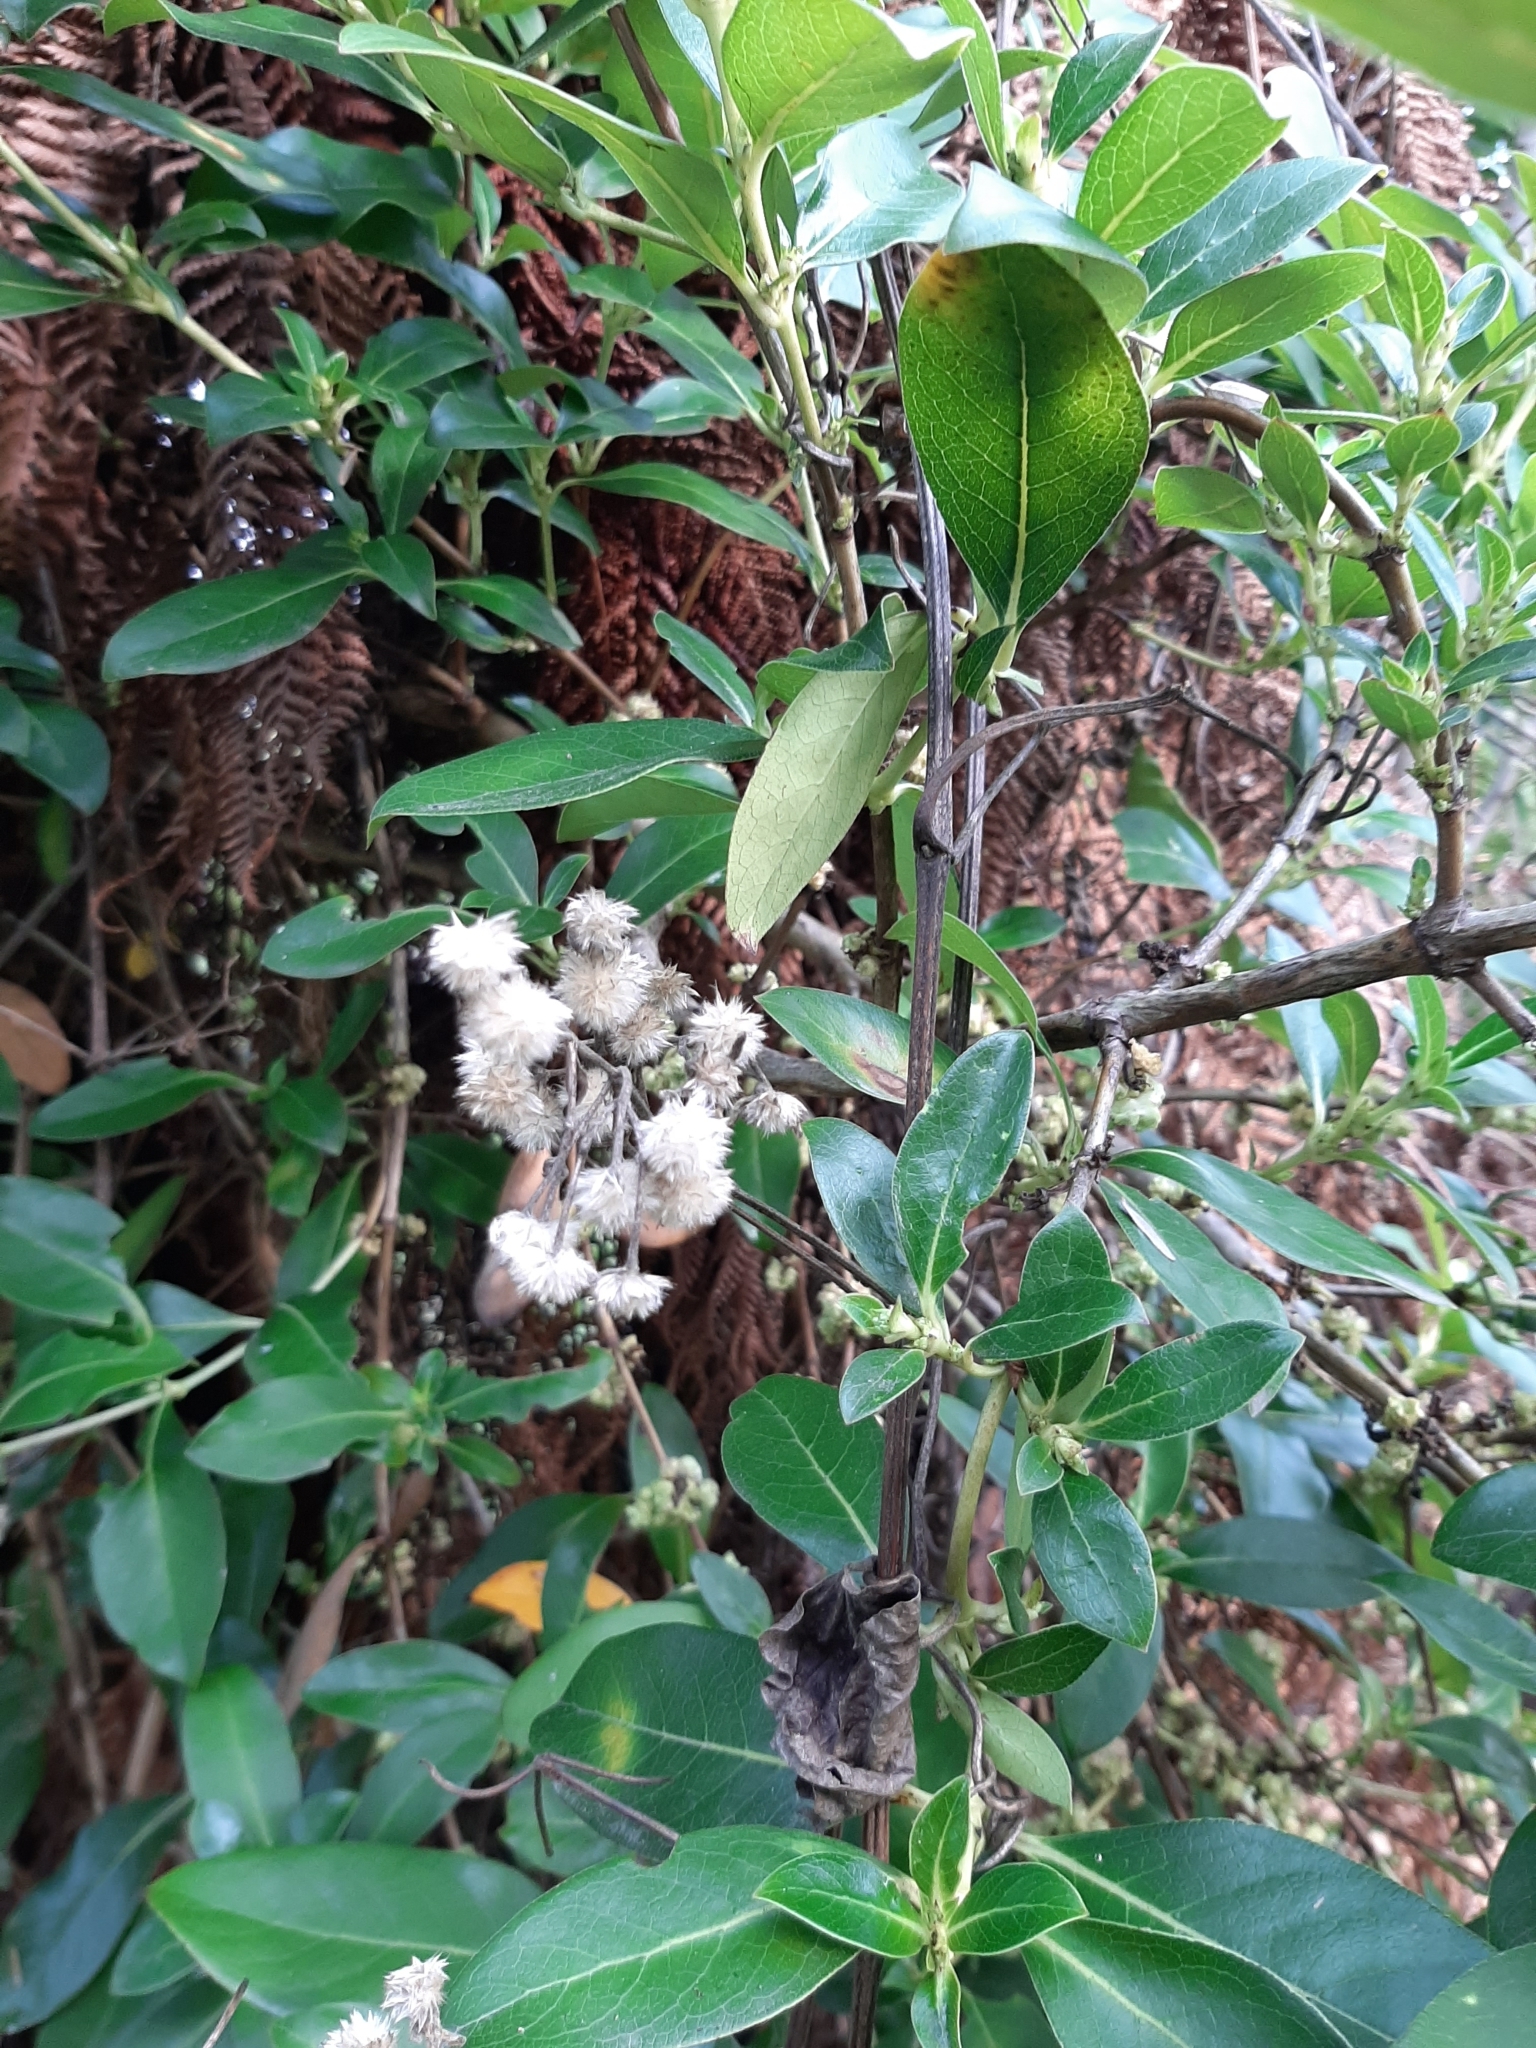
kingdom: Plantae
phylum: Tracheophyta
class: Magnoliopsida
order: Ranunculales
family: Ranunculaceae
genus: Clematis
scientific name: Clematis vitalba
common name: Evergreen clematis
